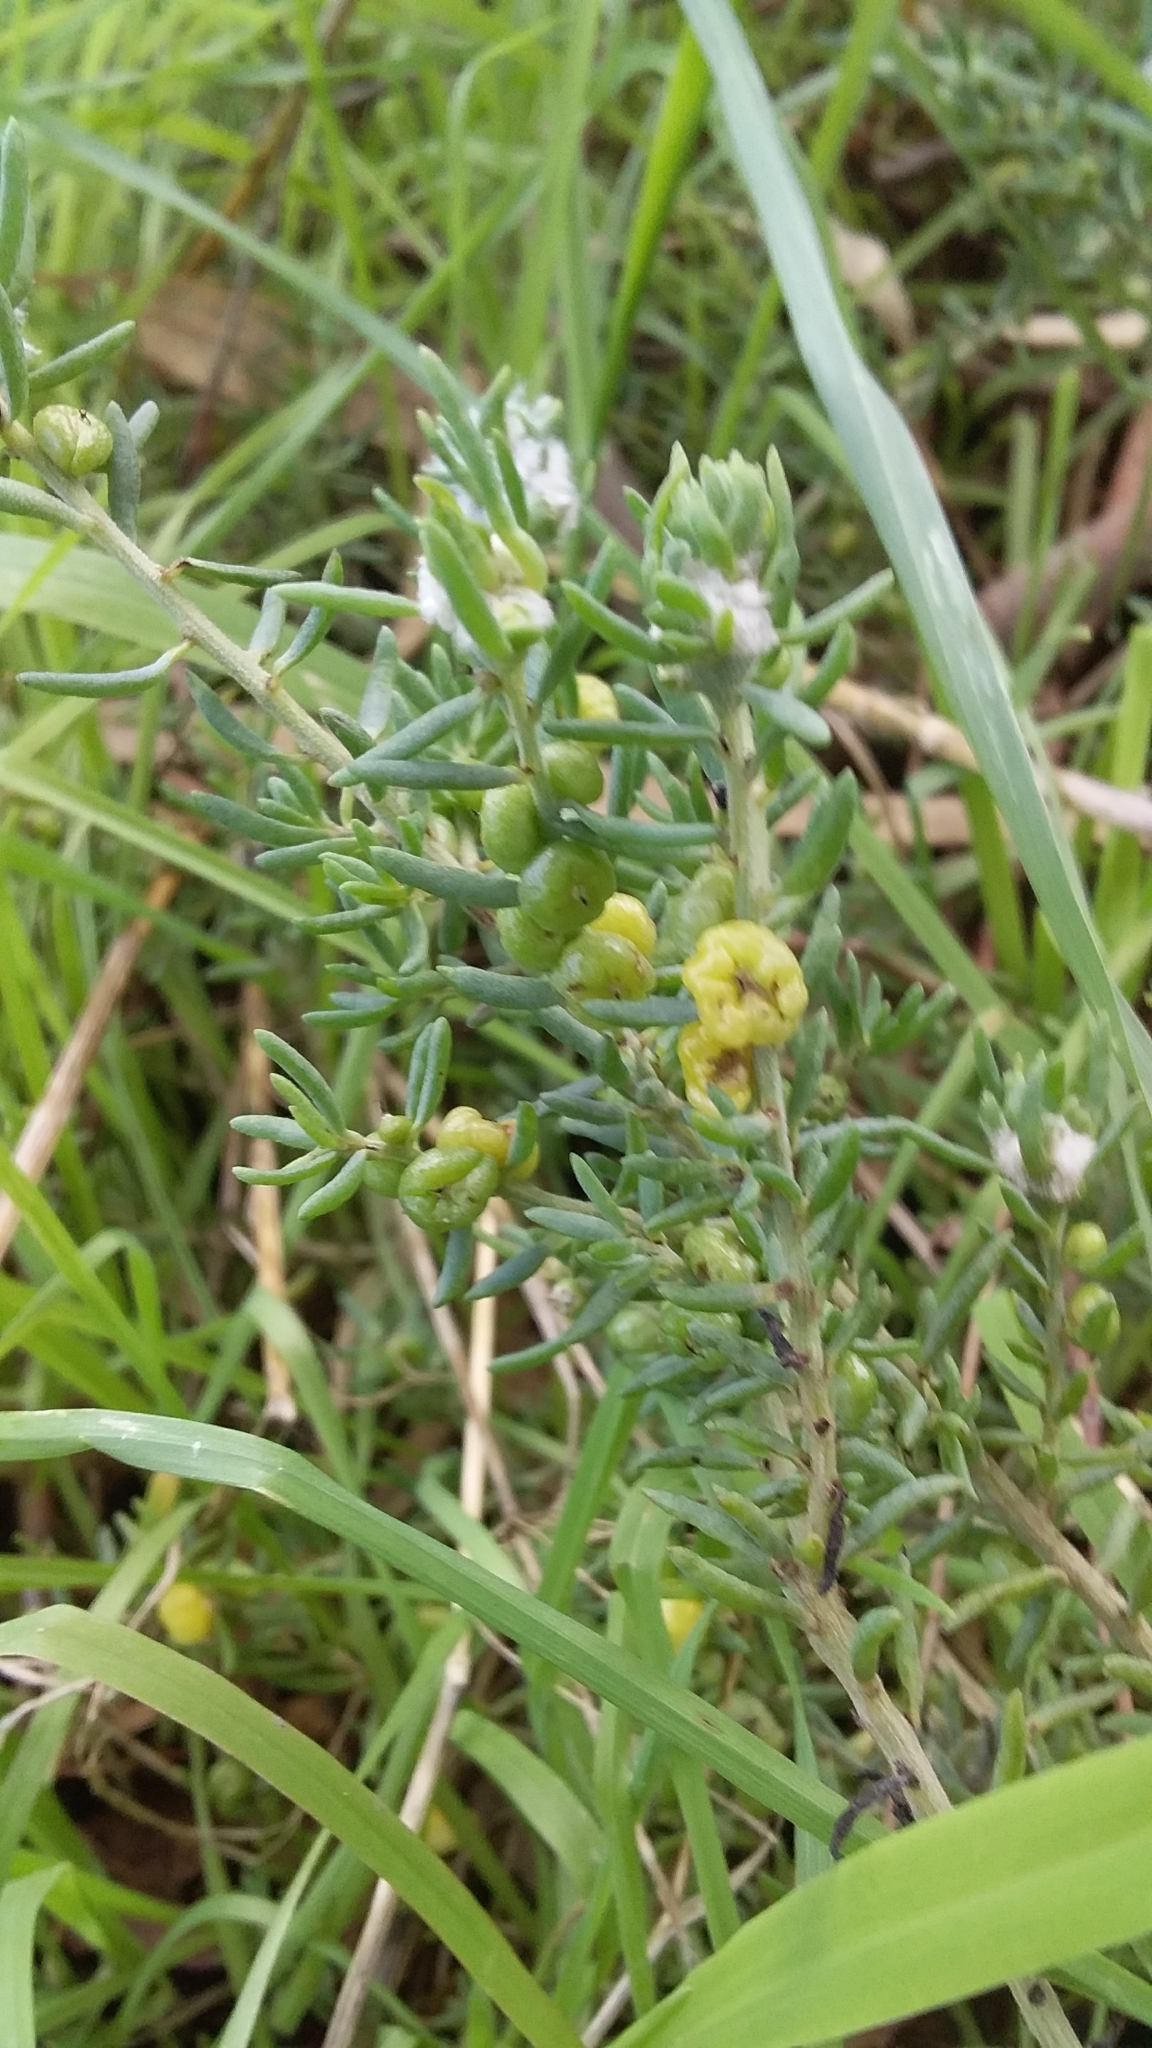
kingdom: Plantae
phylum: Tracheophyta
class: Magnoliopsida
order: Caryophyllales
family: Amaranthaceae
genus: Enchylaena
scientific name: Enchylaena tomentosa
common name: Ruby saltbush
